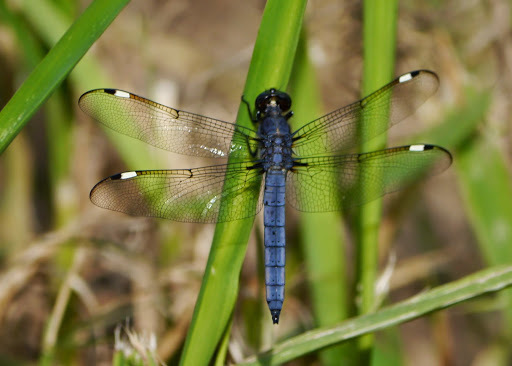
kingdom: Animalia
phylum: Arthropoda
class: Insecta
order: Odonata
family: Libellulidae
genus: Libellula
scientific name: Libellula cyanea
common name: Spangled skimmer
